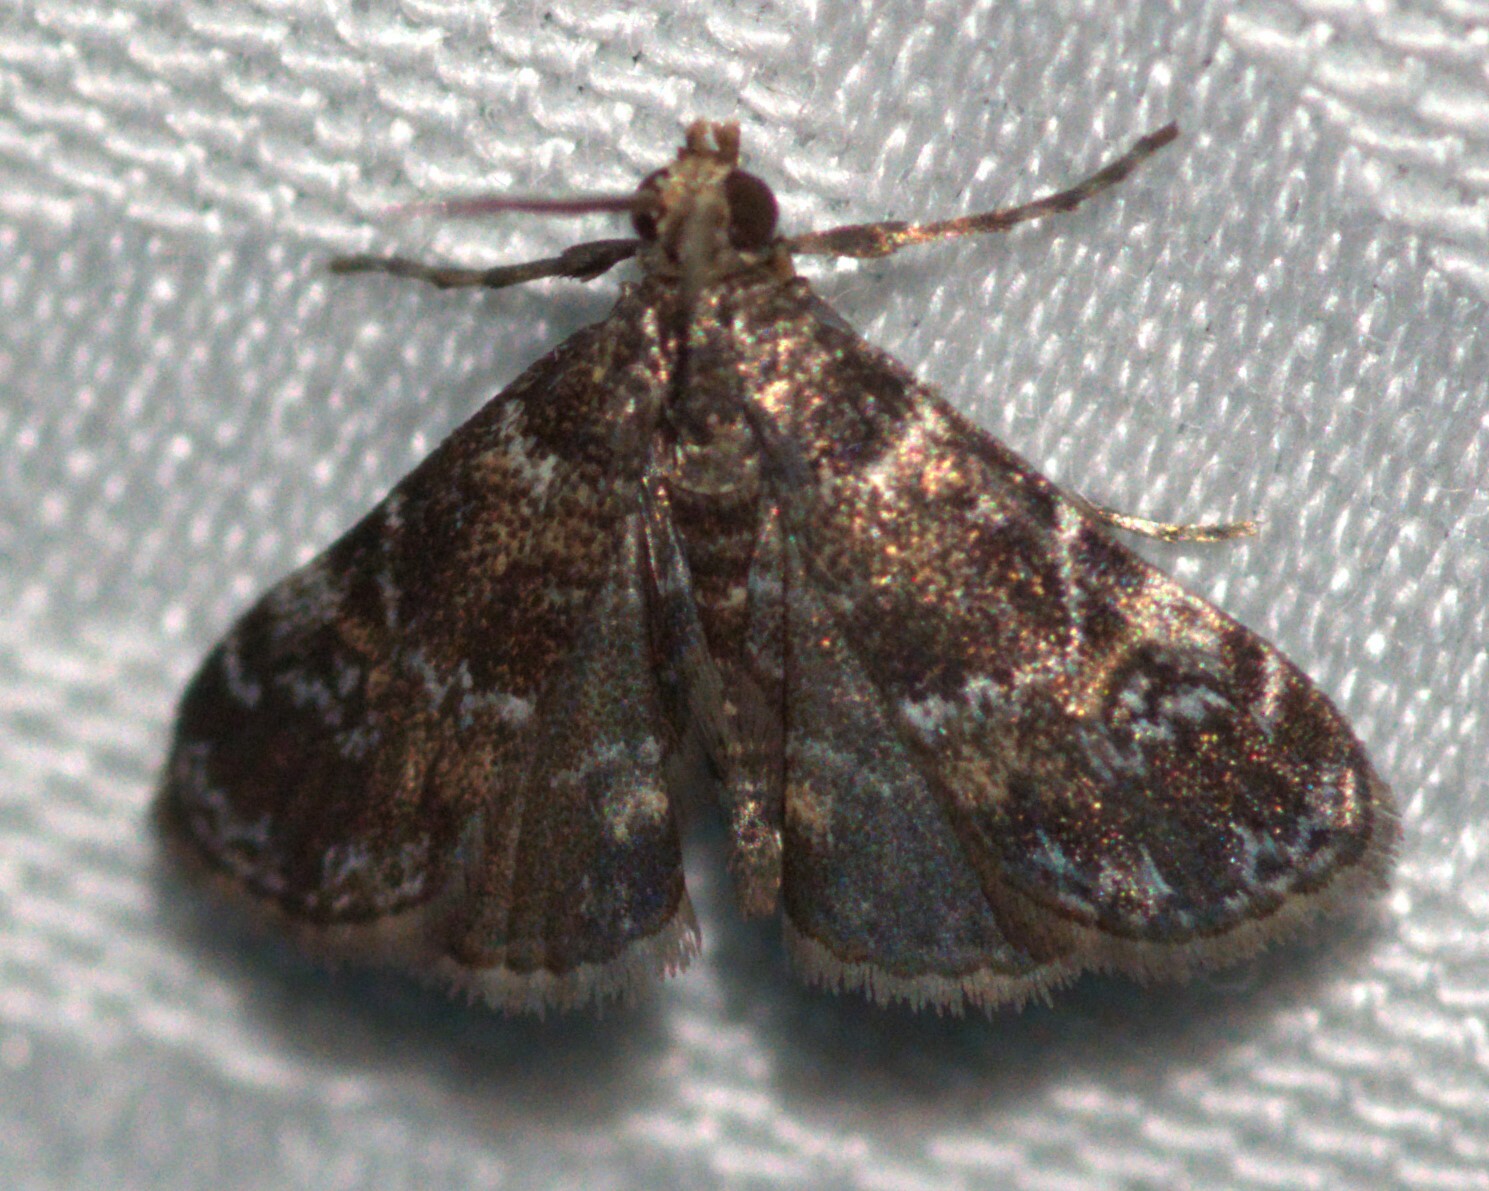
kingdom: Animalia
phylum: Arthropoda
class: Insecta
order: Lepidoptera
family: Crambidae
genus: Elophila
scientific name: Elophila obliteralis
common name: Waterlily leafcutter moth
